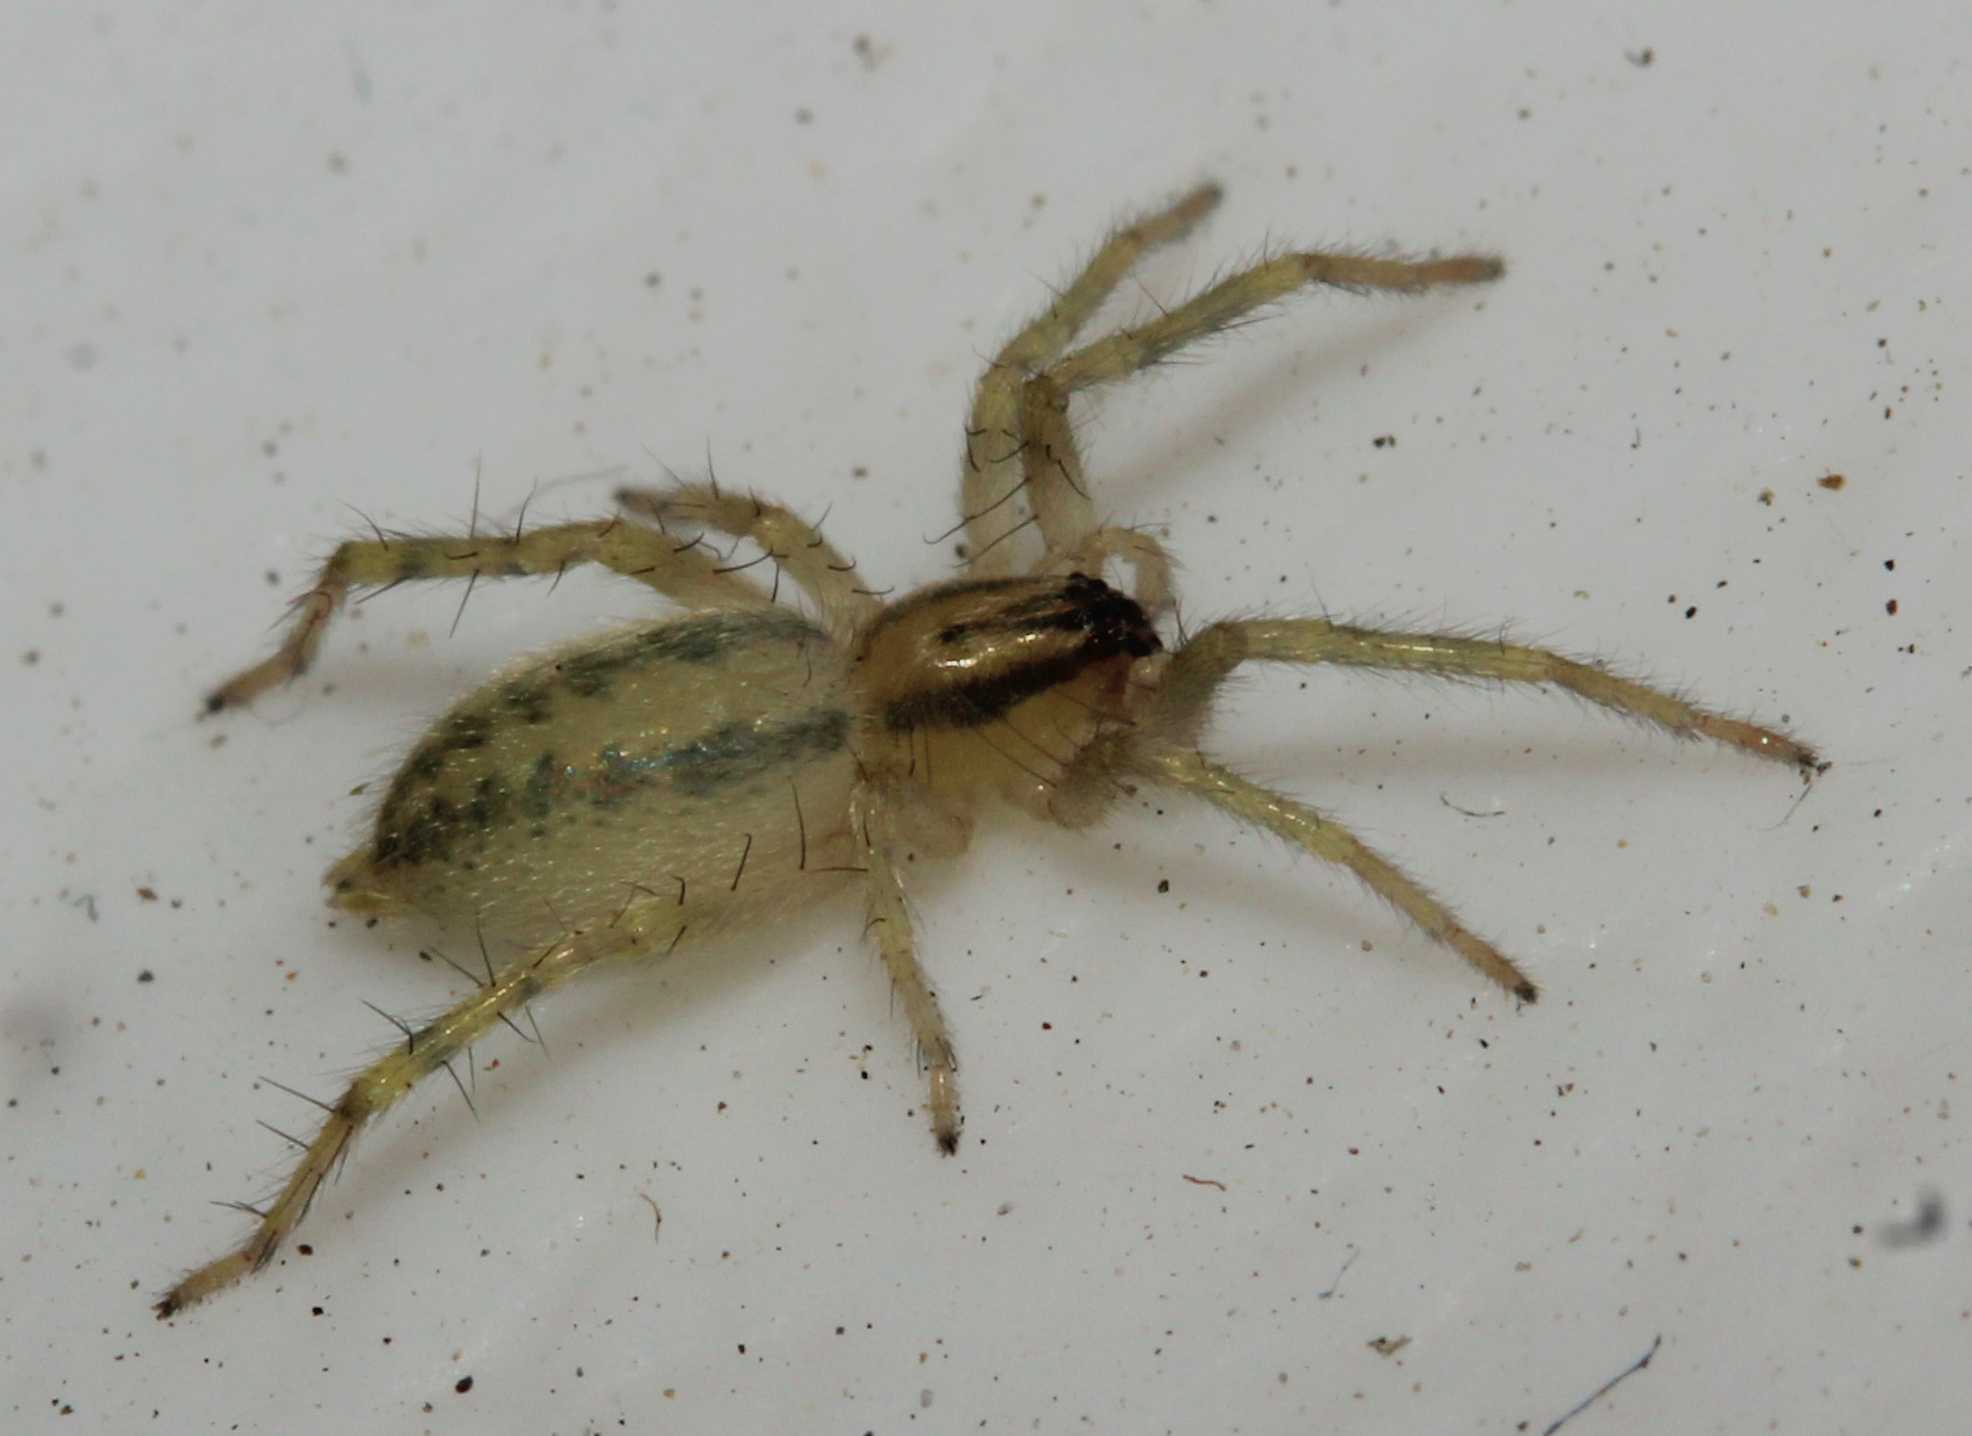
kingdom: Animalia
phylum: Arthropoda
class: Arachnida
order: Araneae
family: Anyphaenidae
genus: Hibana
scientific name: Hibana
